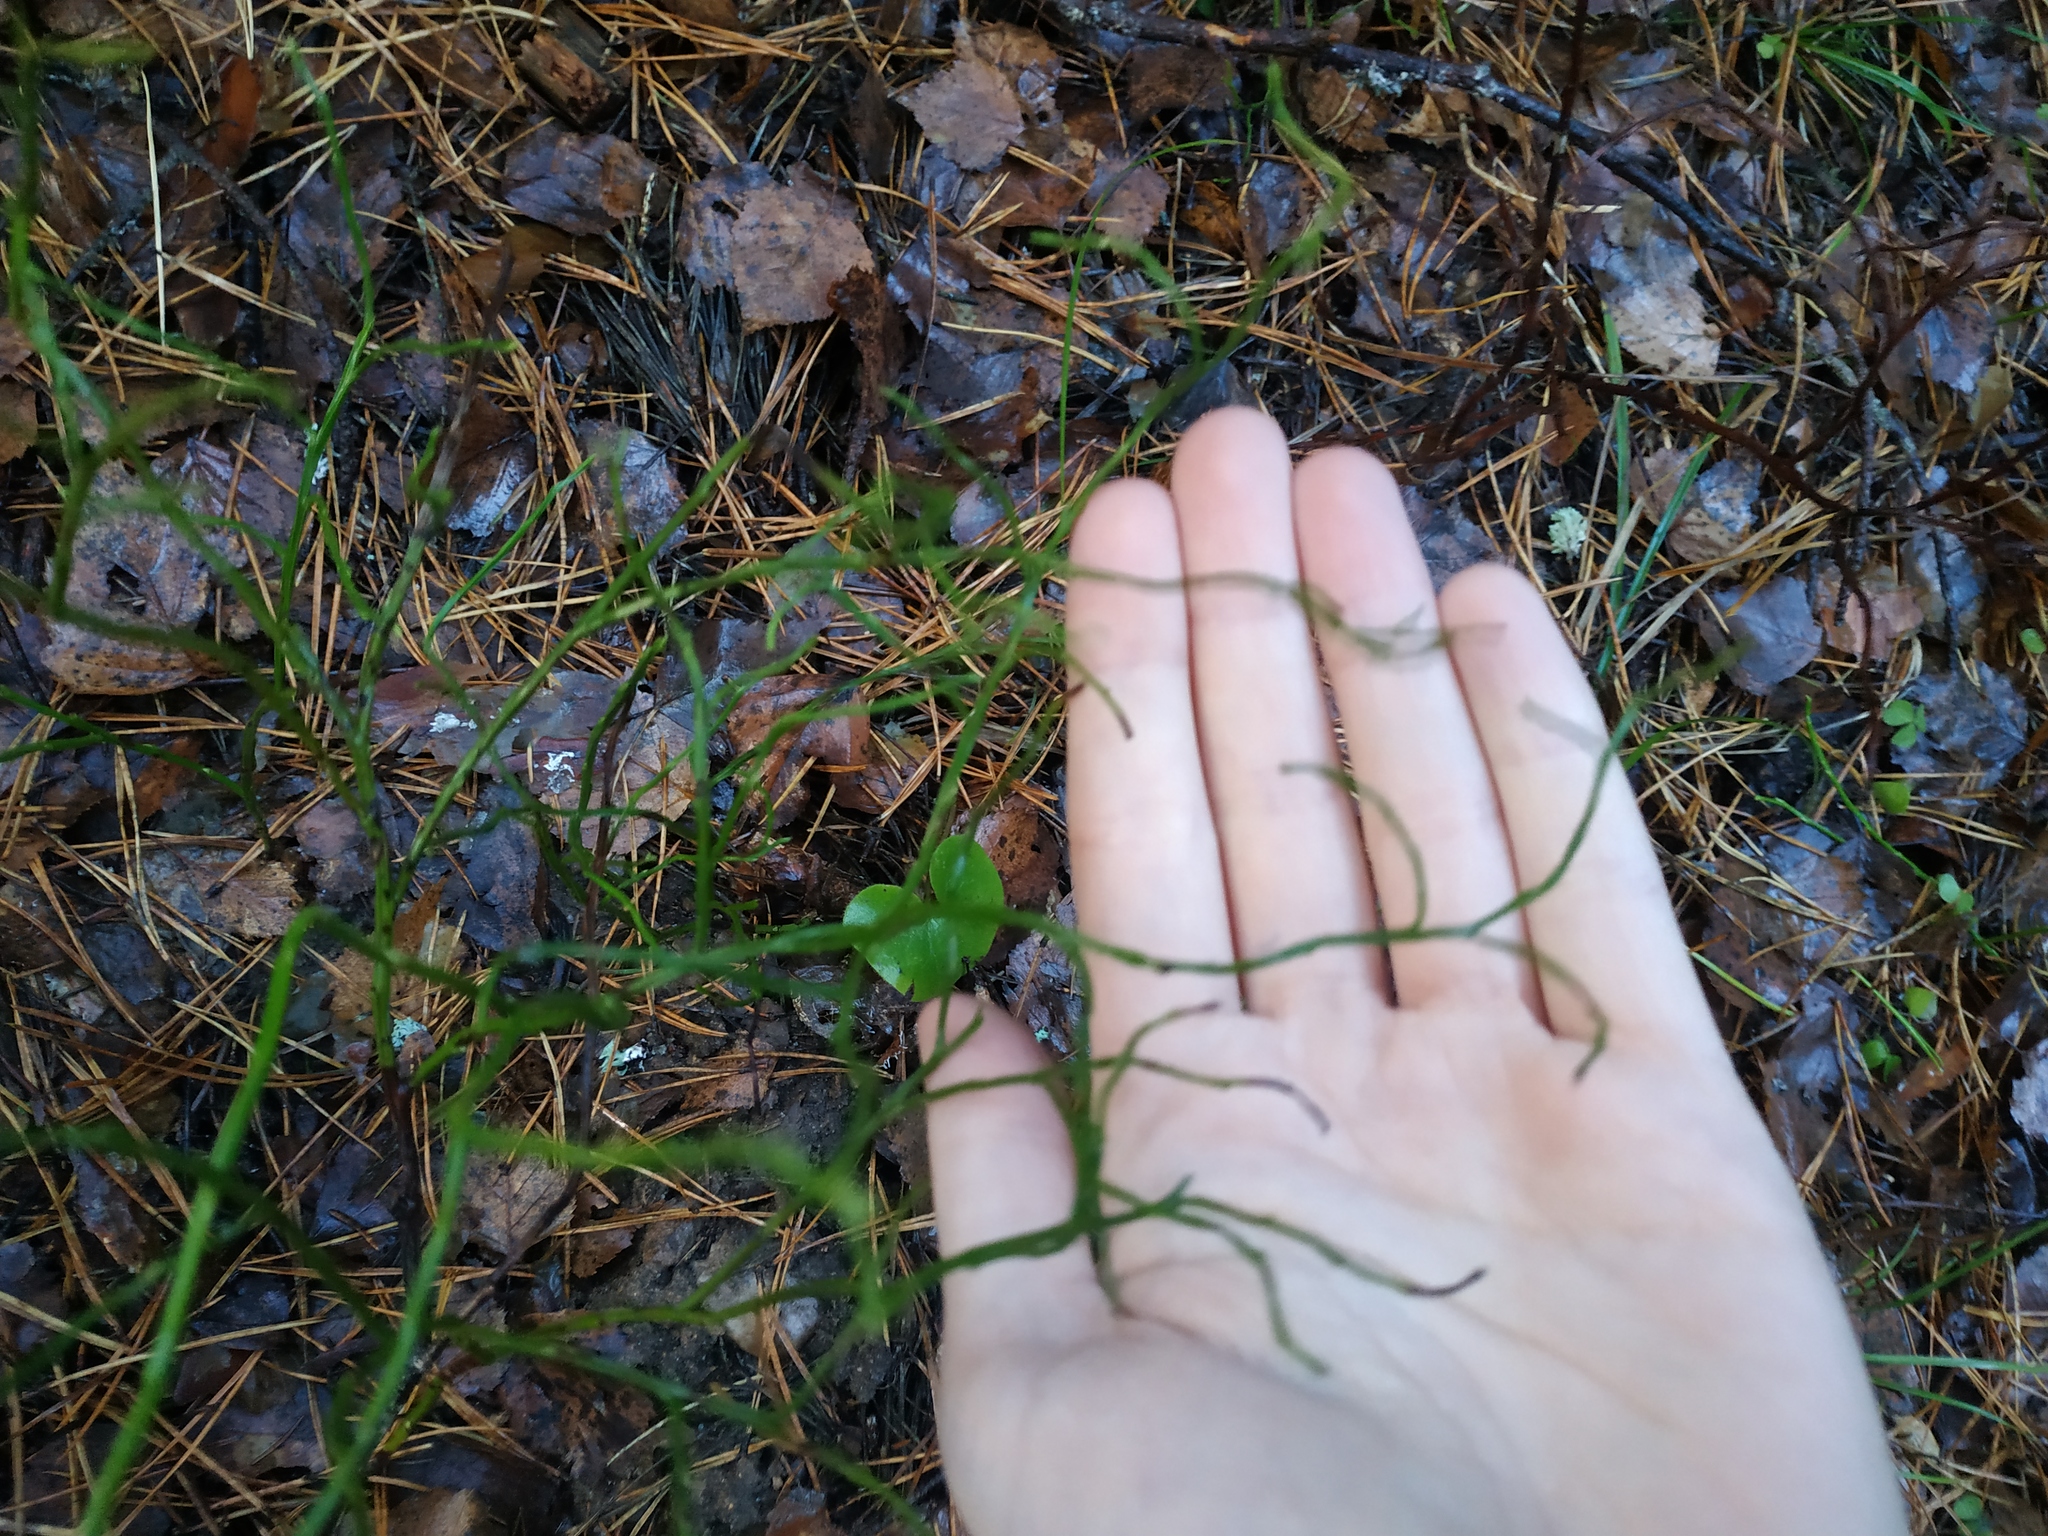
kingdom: Plantae
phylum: Tracheophyta
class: Magnoliopsida
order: Ericales
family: Ericaceae
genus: Vaccinium
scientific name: Vaccinium myrtillus
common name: Bilberry
